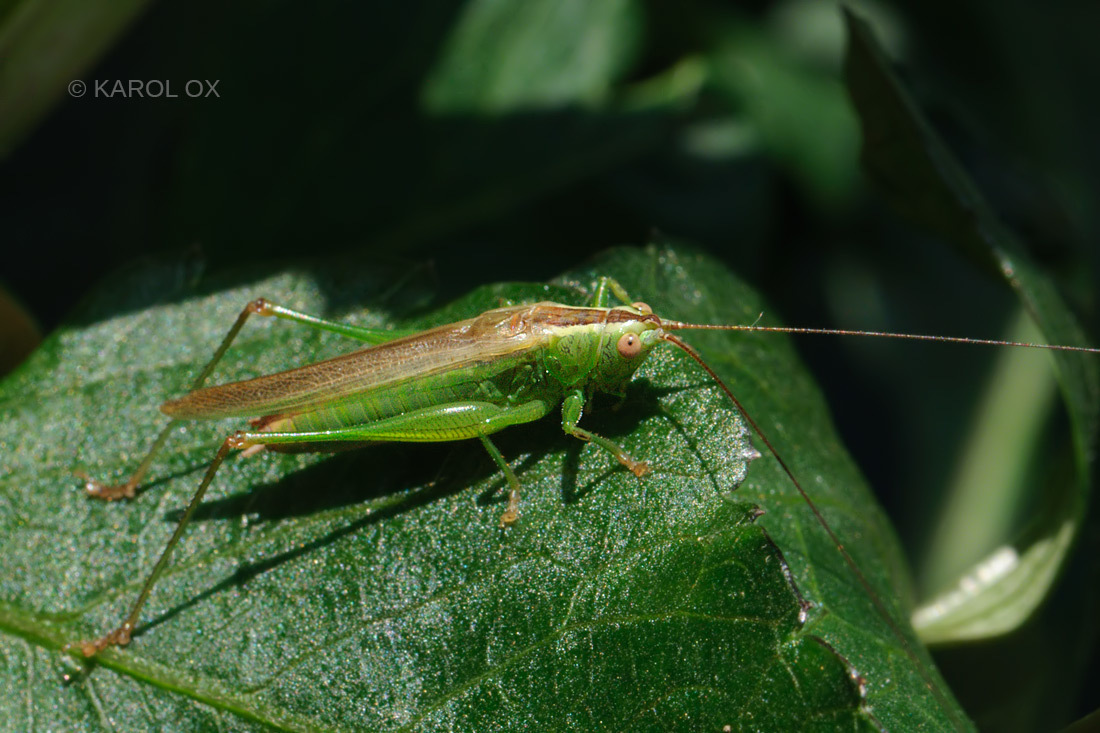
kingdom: Animalia
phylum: Arthropoda
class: Insecta
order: Orthoptera
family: Tettigoniidae
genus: Conocephalus
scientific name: Conocephalus fuscus
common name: Long-winged conehead
